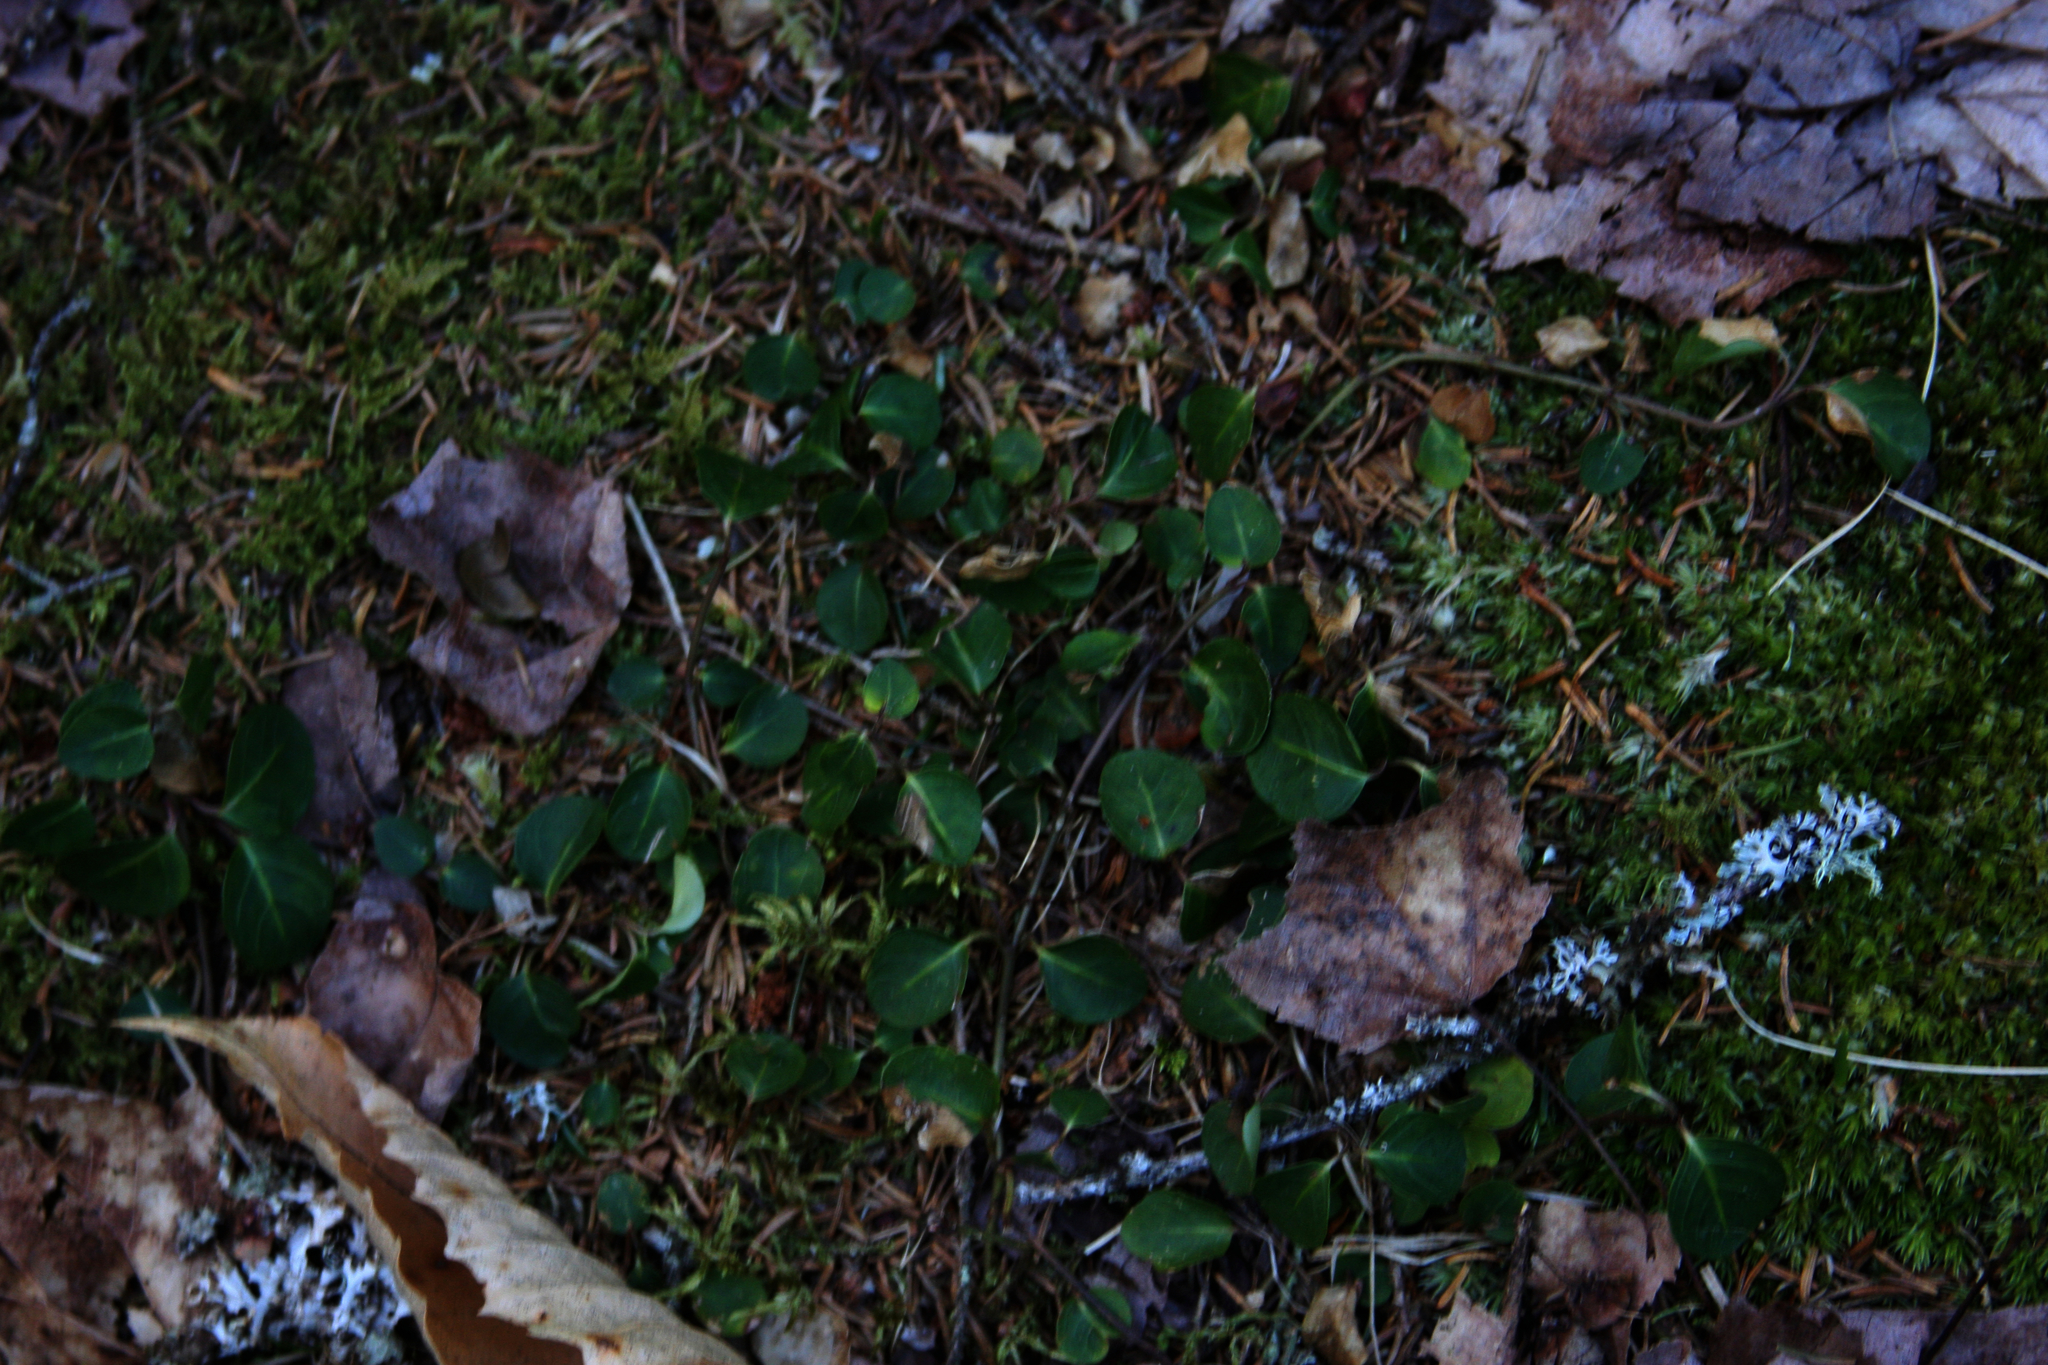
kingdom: Plantae
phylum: Tracheophyta
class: Magnoliopsida
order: Gentianales
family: Rubiaceae
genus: Mitchella
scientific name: Mitchella repens
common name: Partridge-berry
